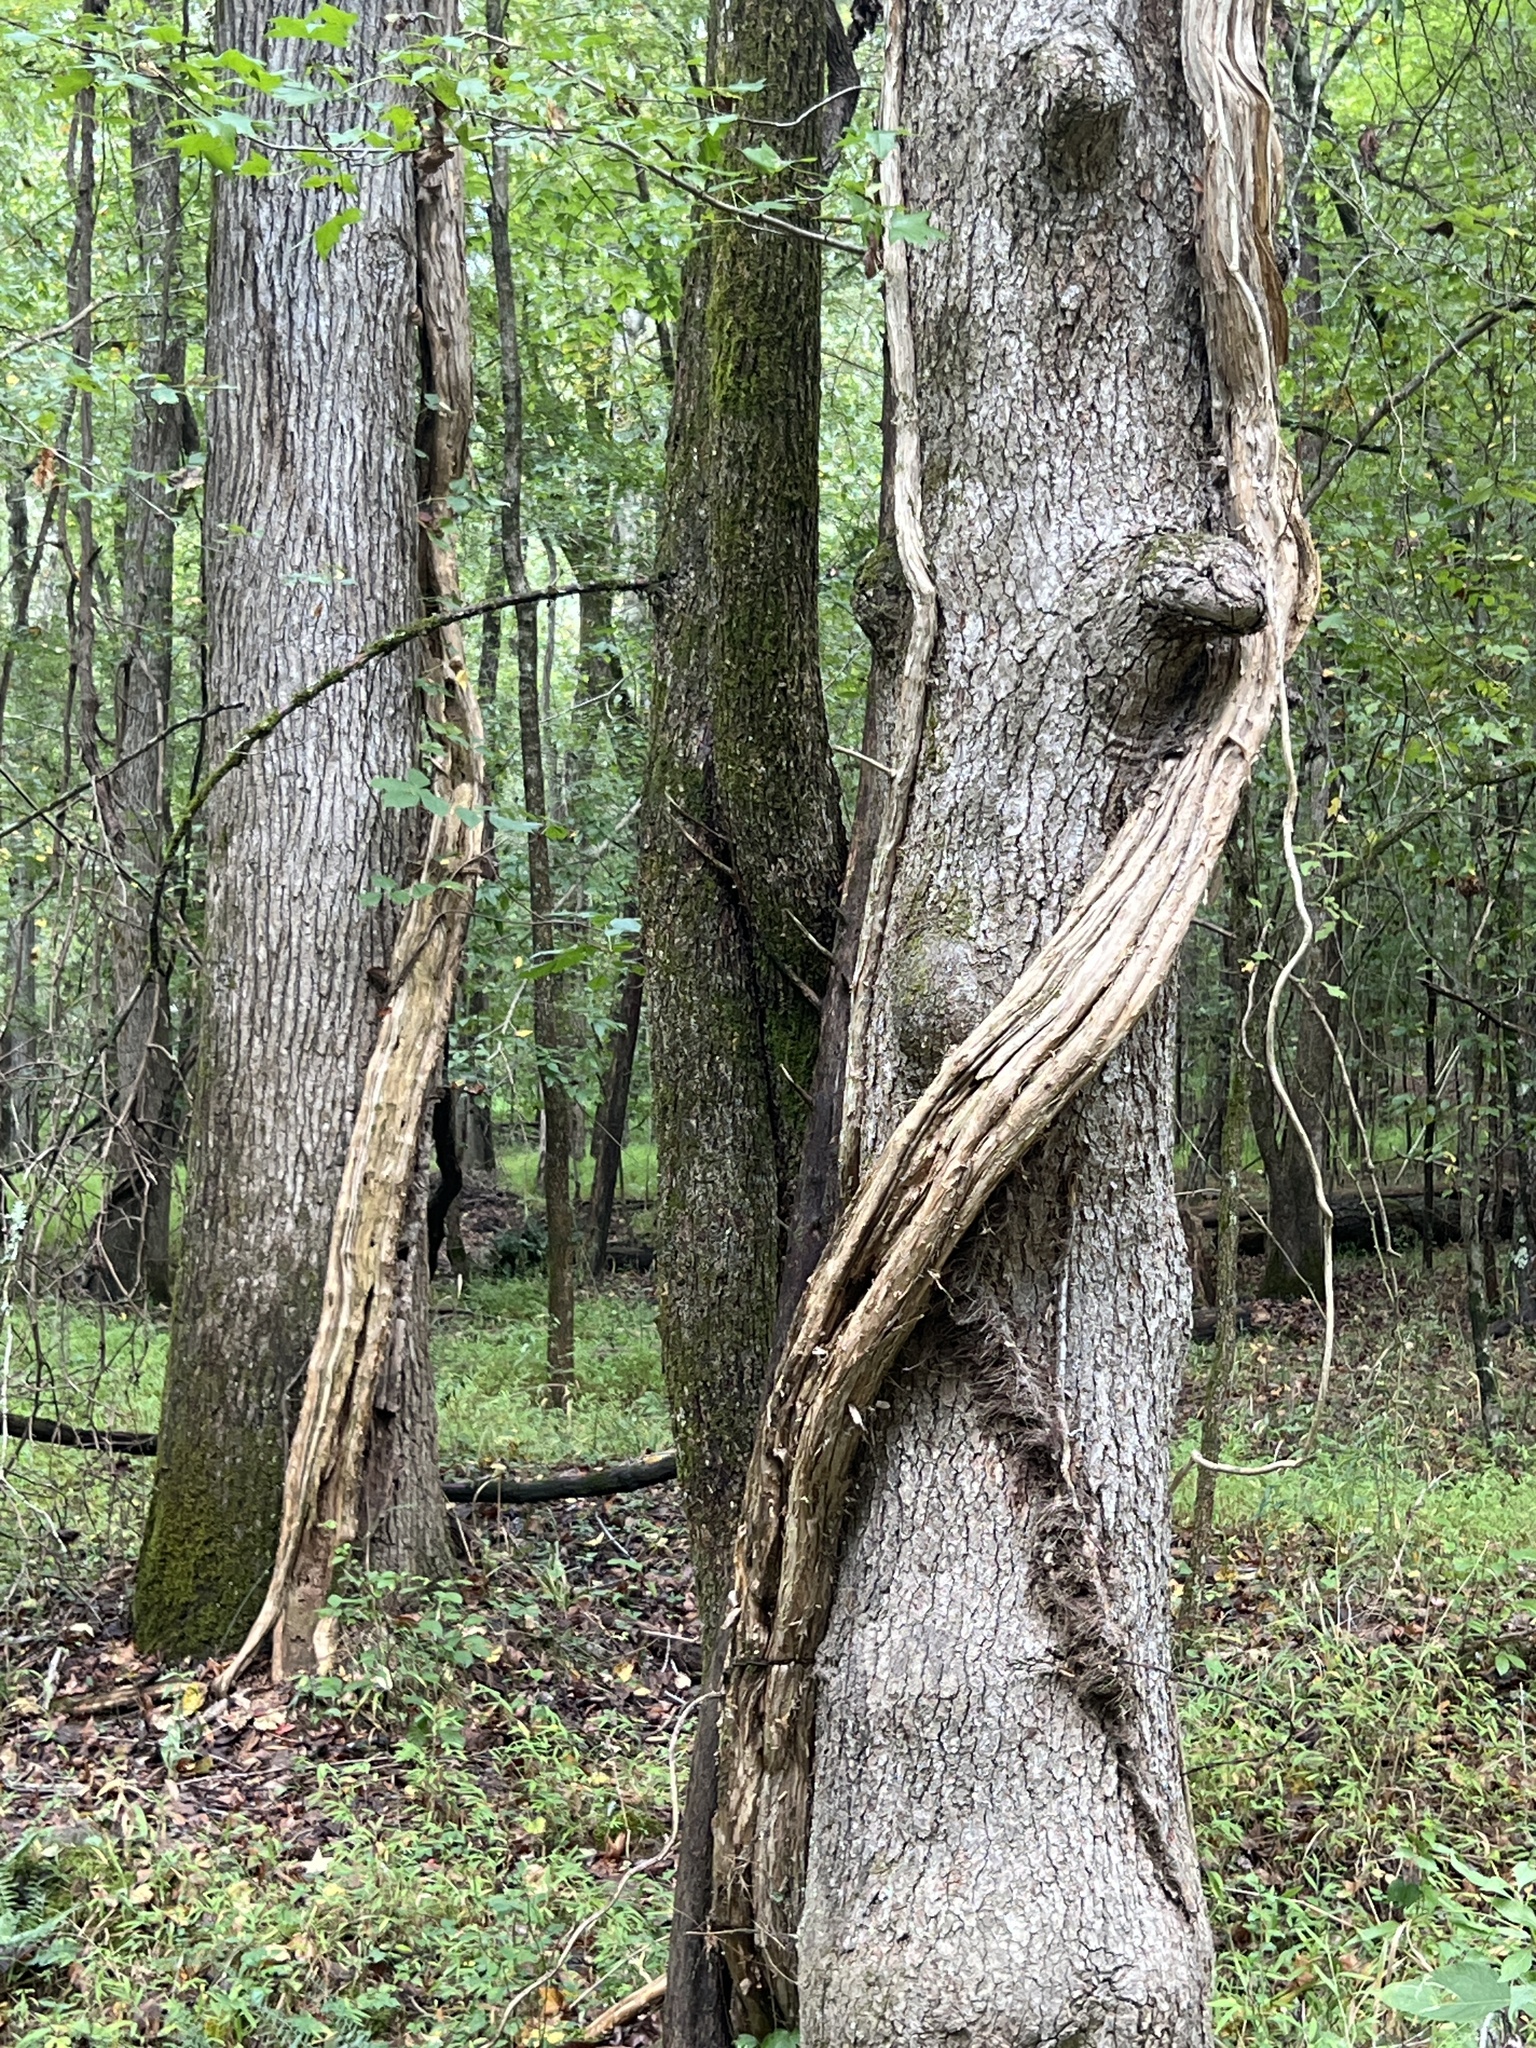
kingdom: Plantae
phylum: Tracheophyta
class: Magnoliopsida
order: Lamiales
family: Bignoniaceae
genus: Campsis
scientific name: Campsis radicans
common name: Trumpet-creeper
